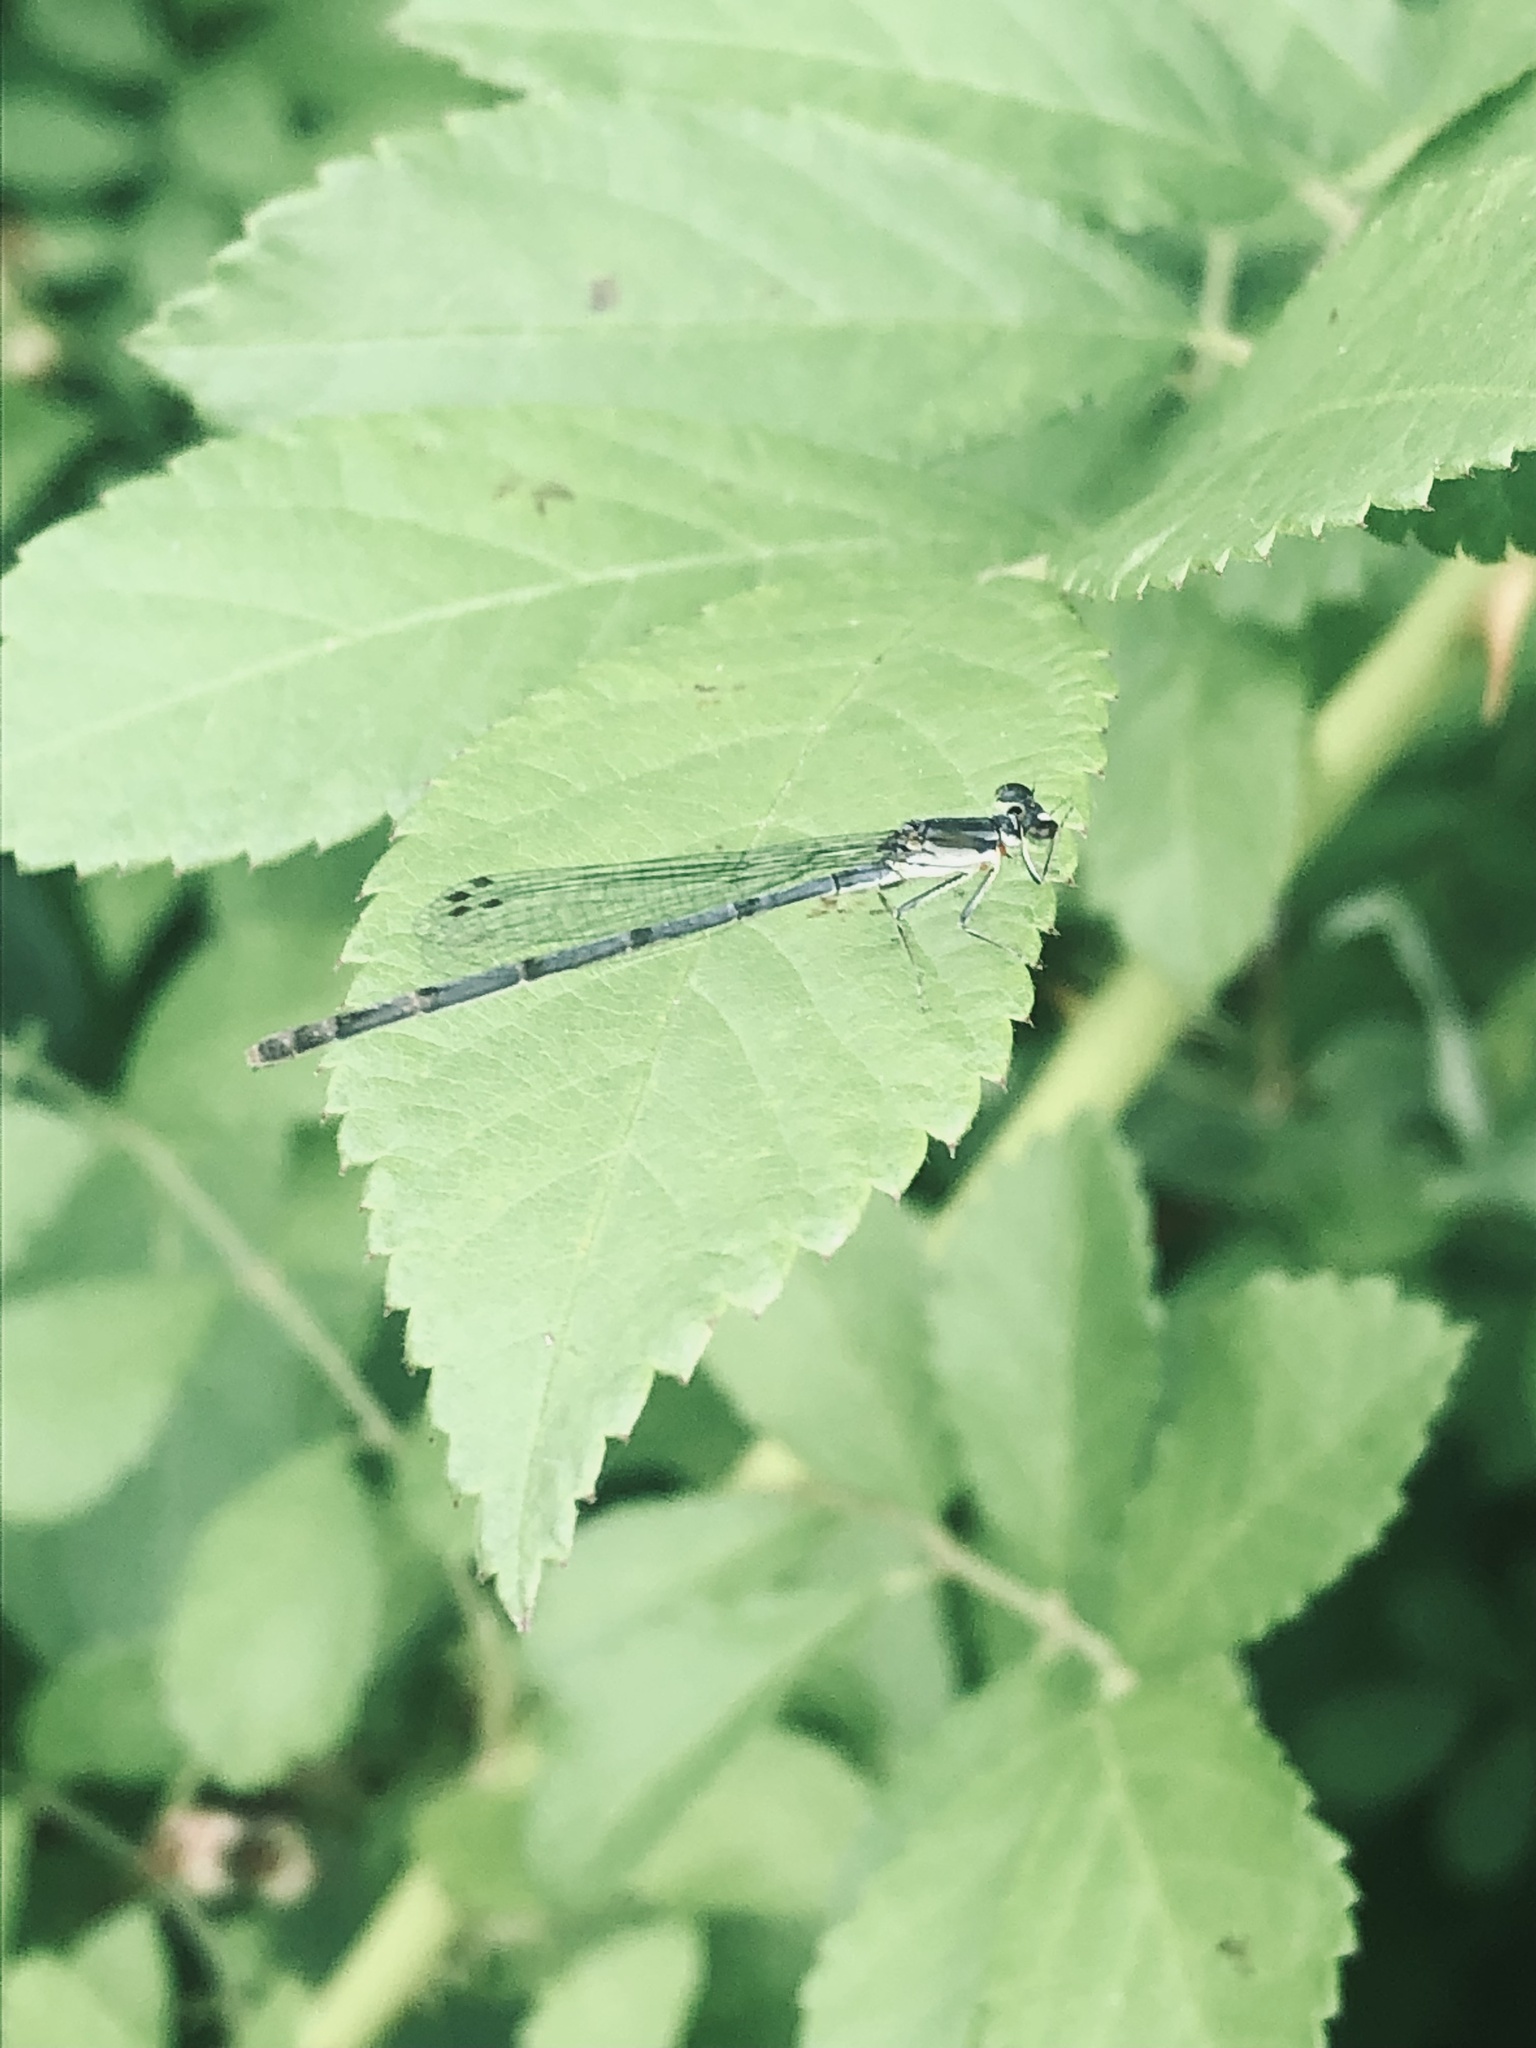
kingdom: Animalia
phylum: Arthropoda
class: Insecta
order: Odonata
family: Coenagrionidae
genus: Ischnura
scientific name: Ischnura posita
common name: Fragile forktail
